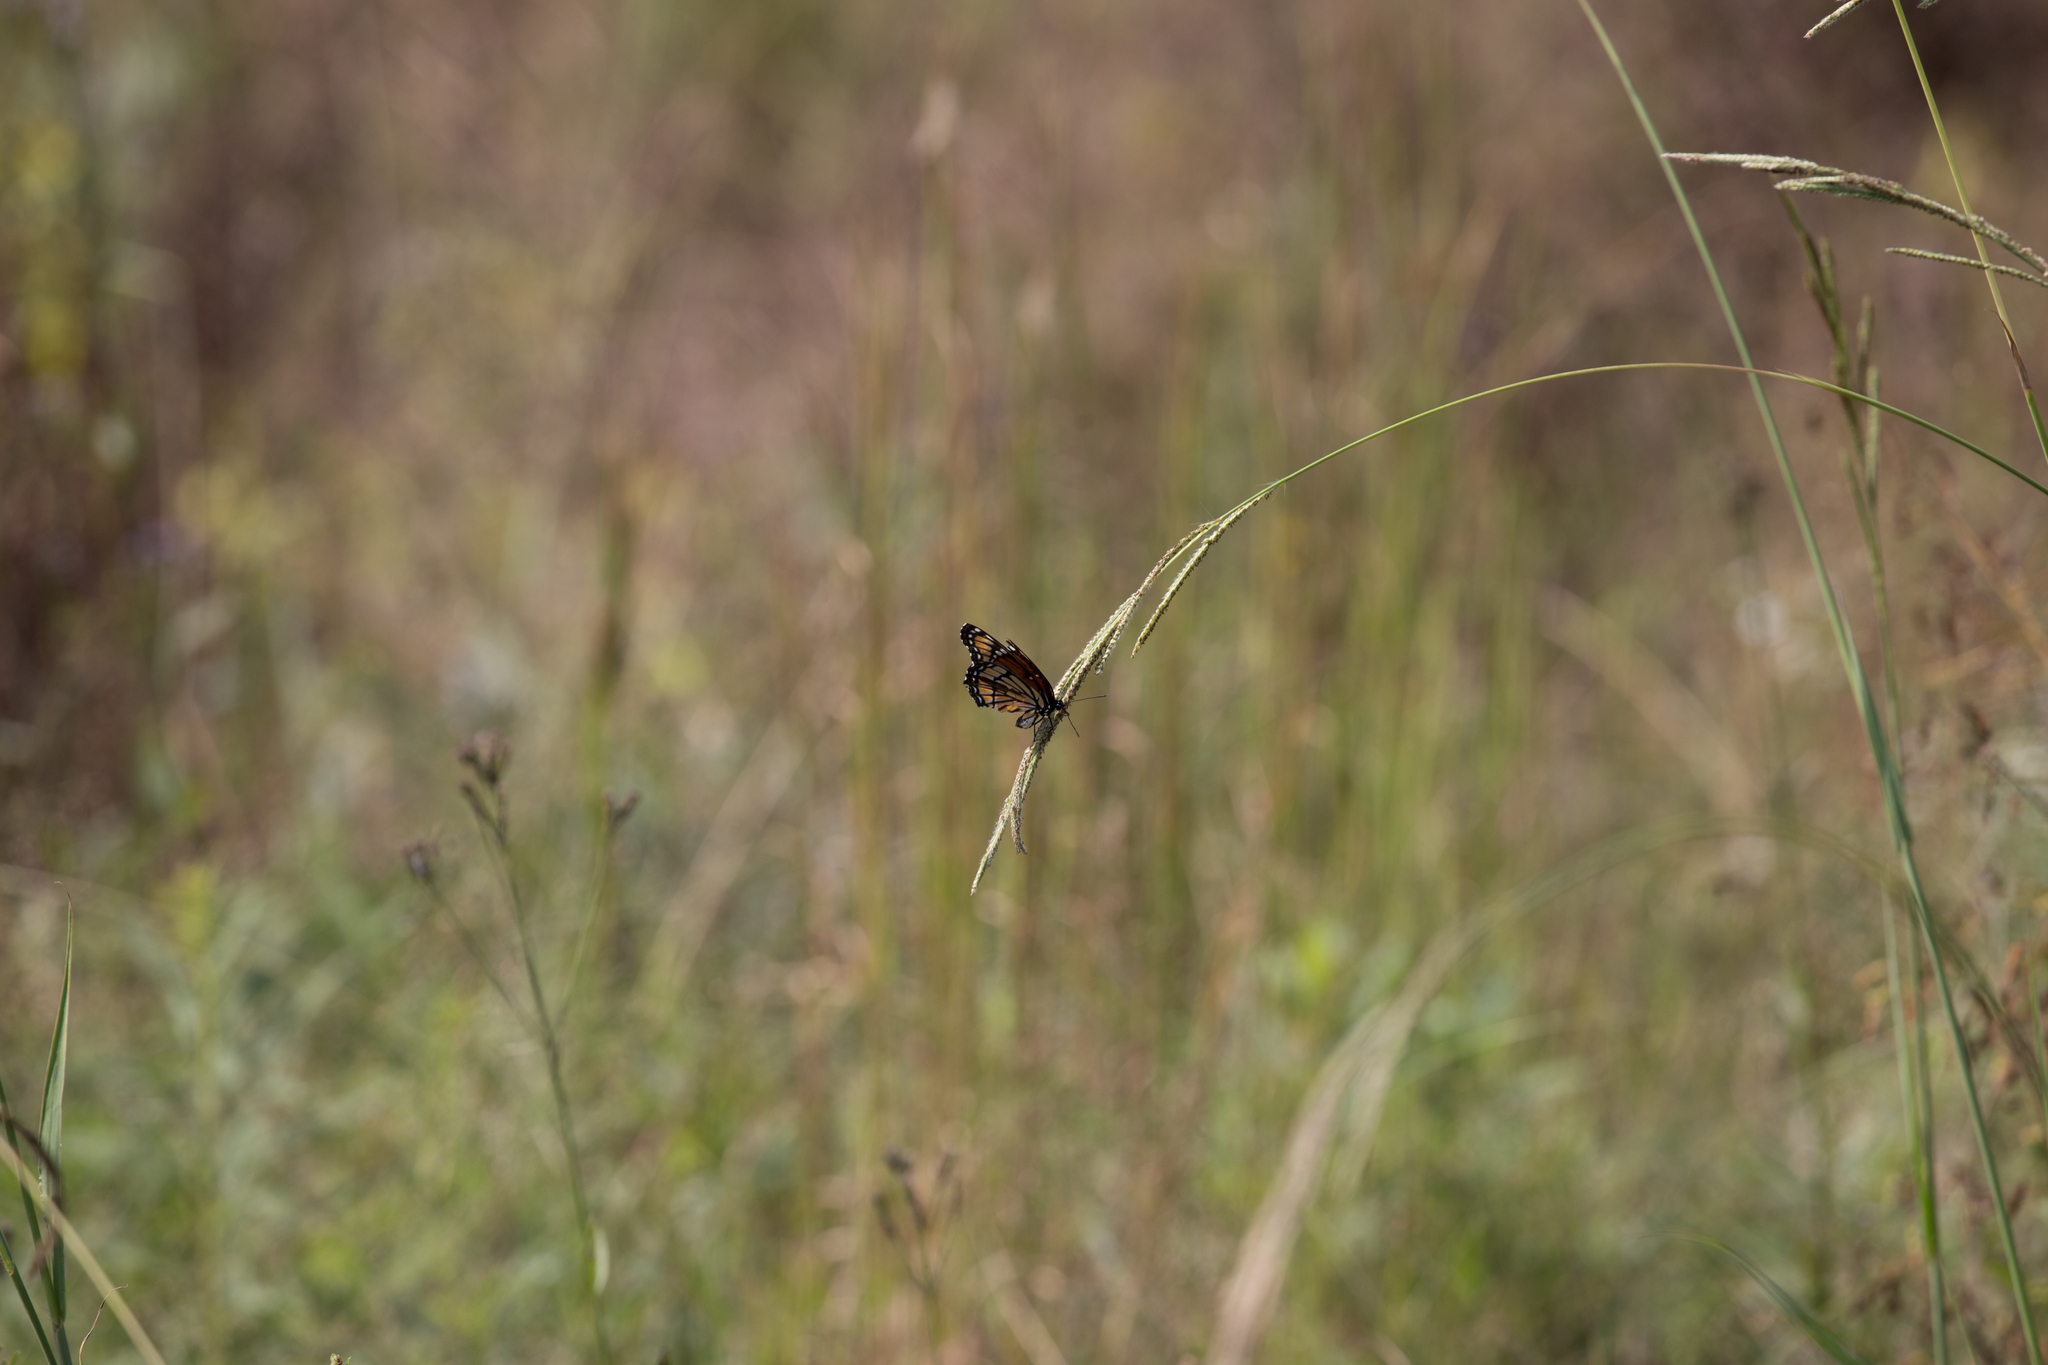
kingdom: Animalia
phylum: Arthropoda
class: Insecta
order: Lepidoptera
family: Nymphalidae
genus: Limenitis
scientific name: Limenitis archippus
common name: Viceroy
